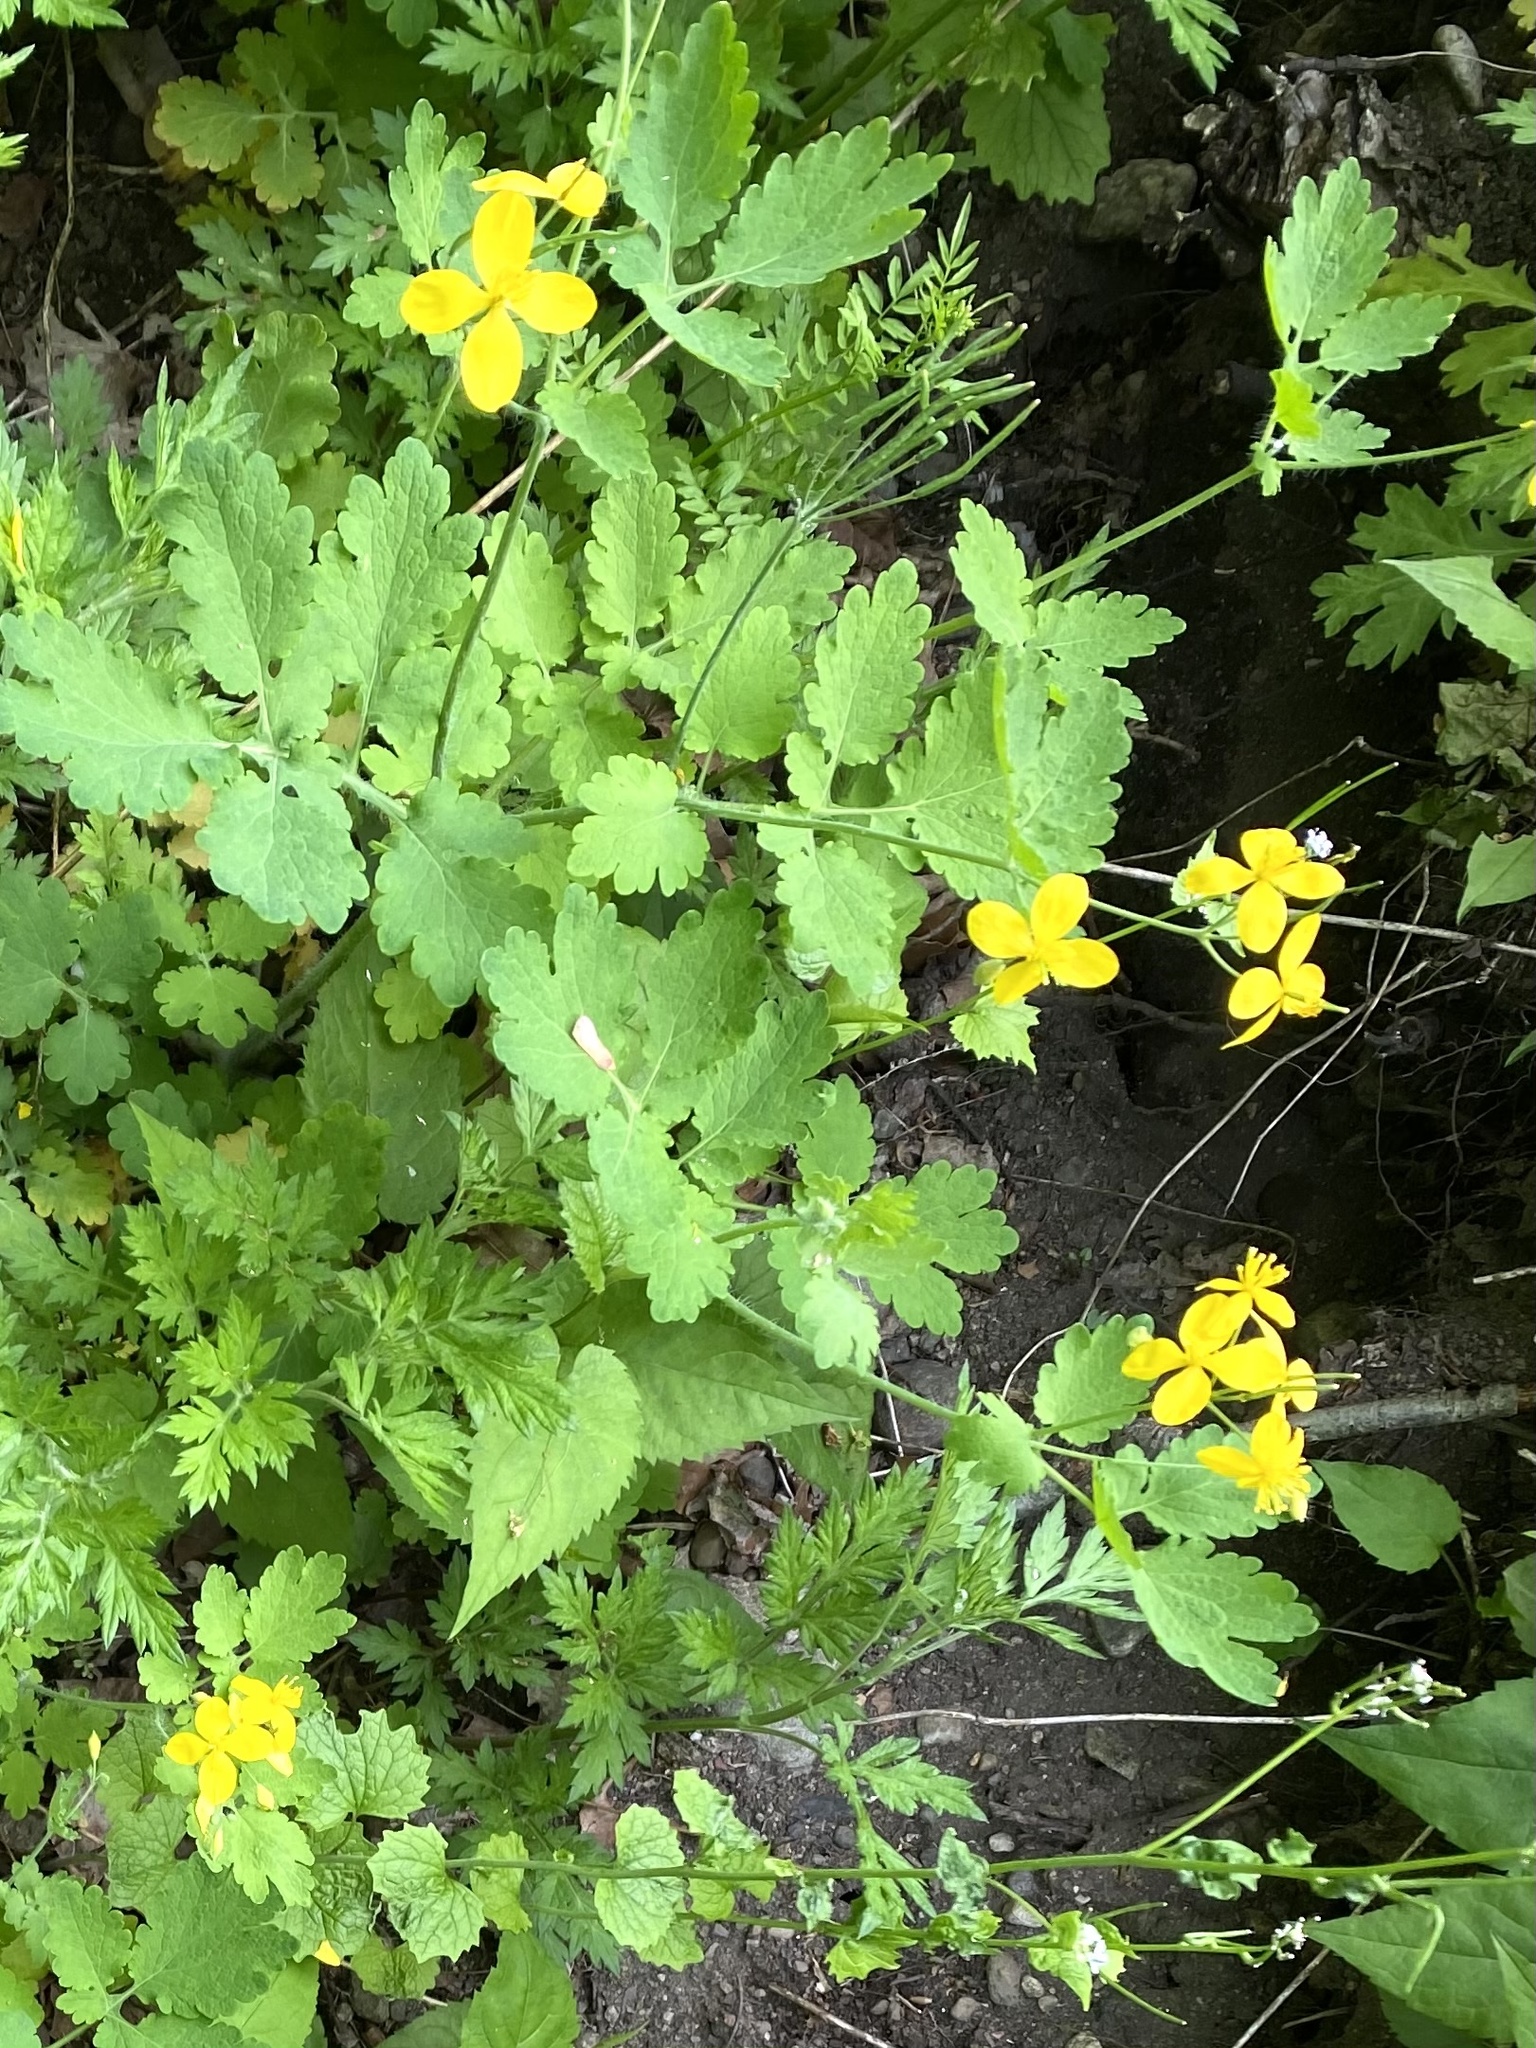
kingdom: Plantae
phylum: Tracheophyta
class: Magnoliopsida
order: Ranunculales
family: Papaveraceae
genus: Chelidonium
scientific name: Chelidonium majus
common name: Greater celandine
